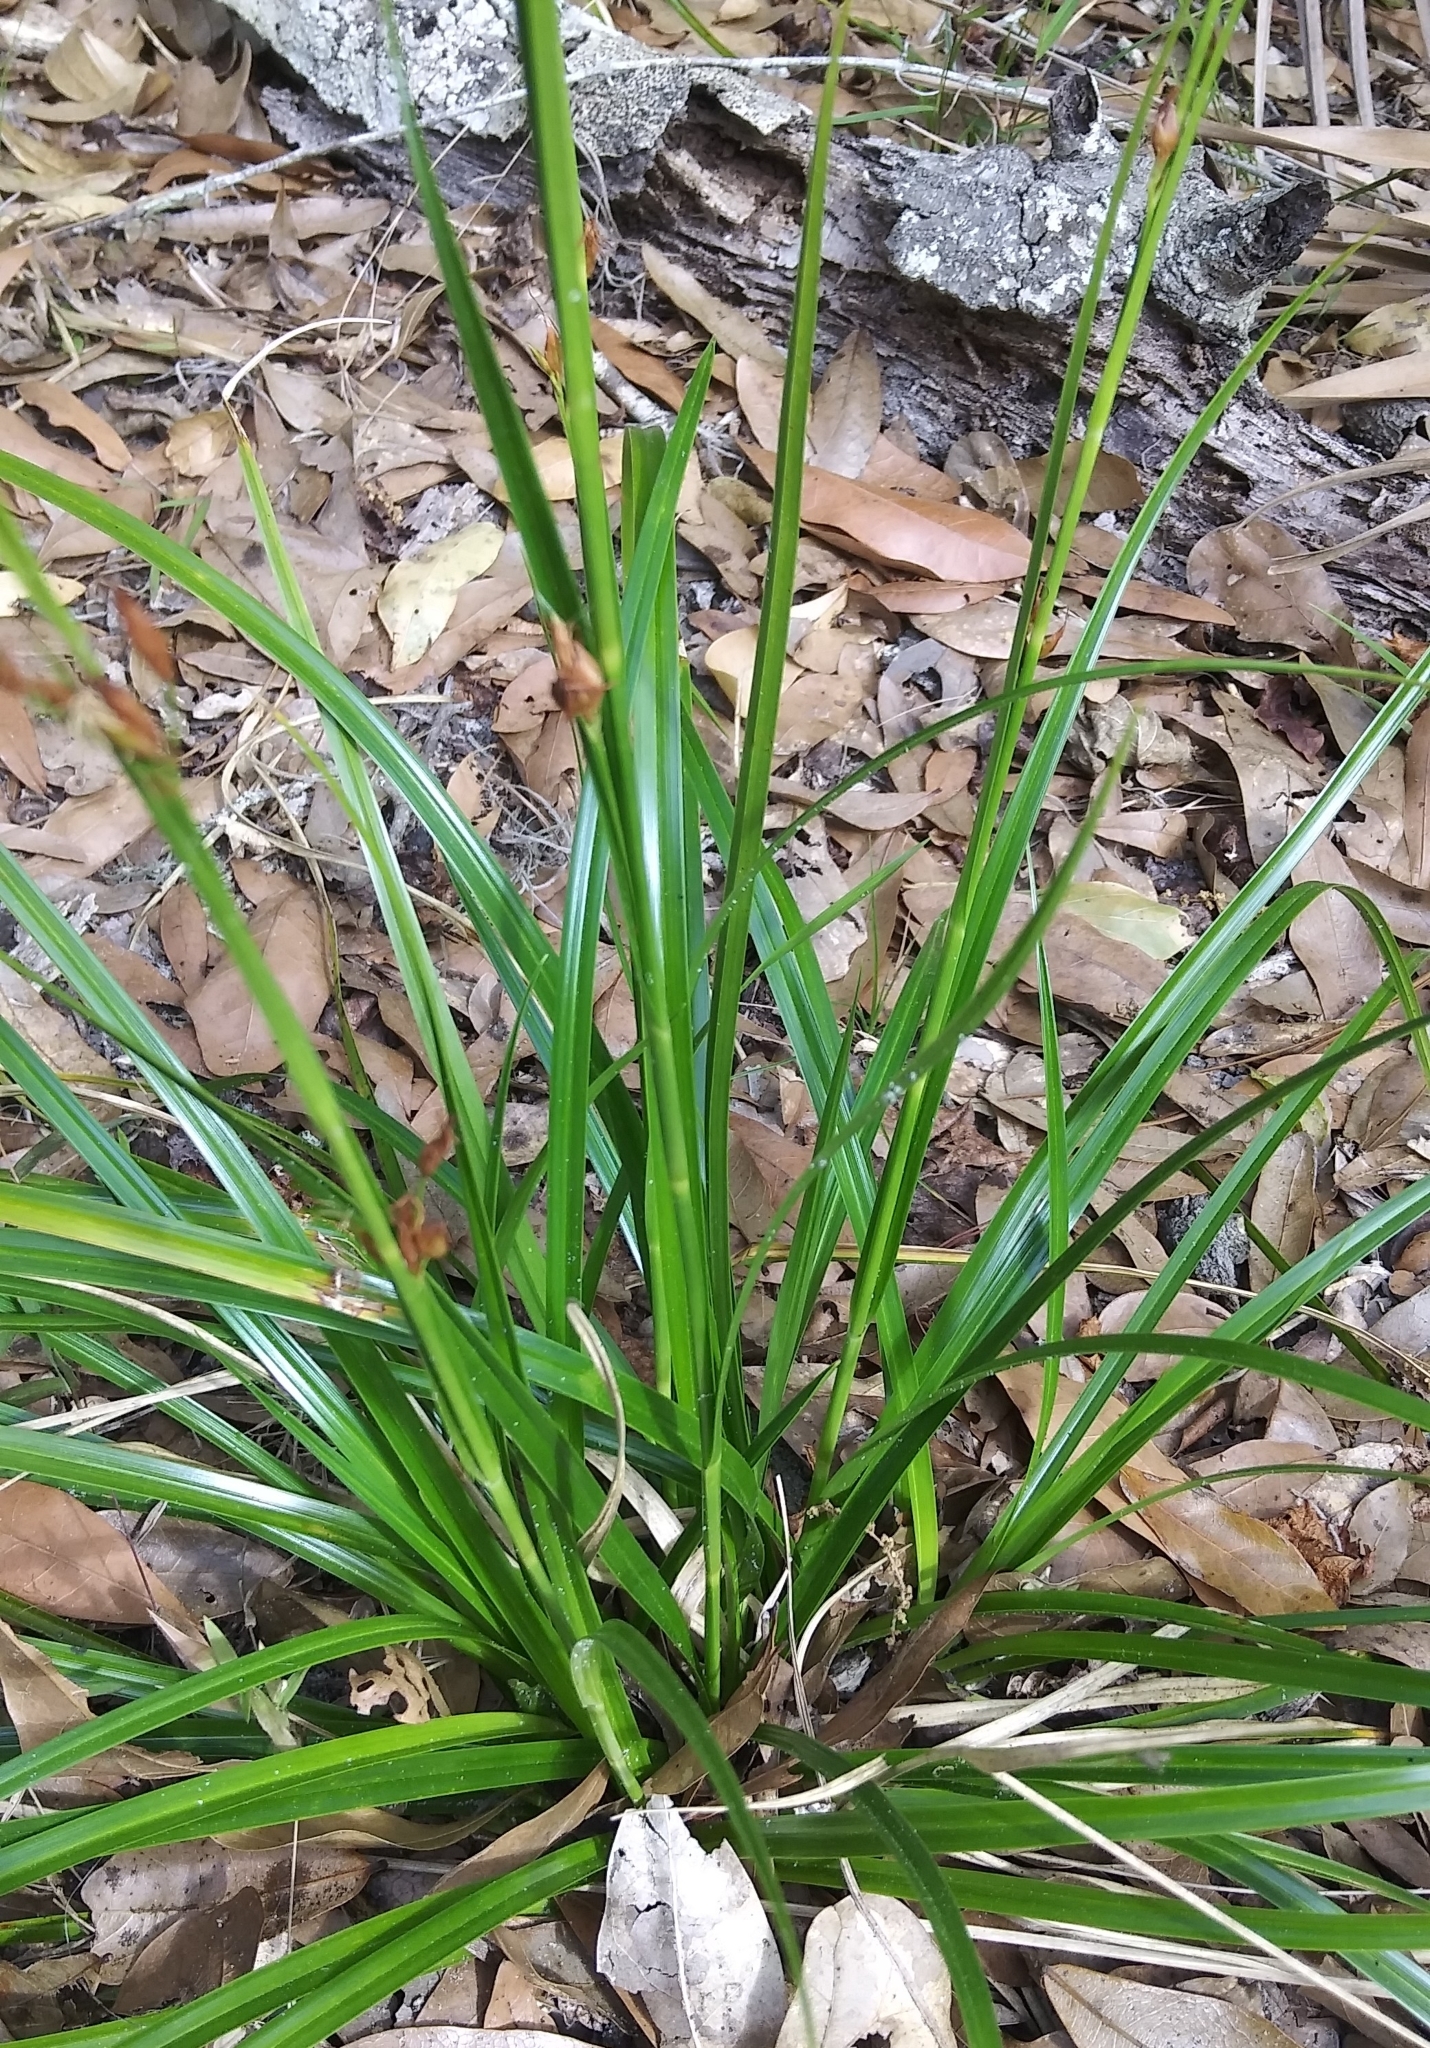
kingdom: Plantae
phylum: Tracheophyta
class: Liliopsida
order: Poales
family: Cyperaceae
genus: Rhynchospora
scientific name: Rhynchospora megalocarpa
